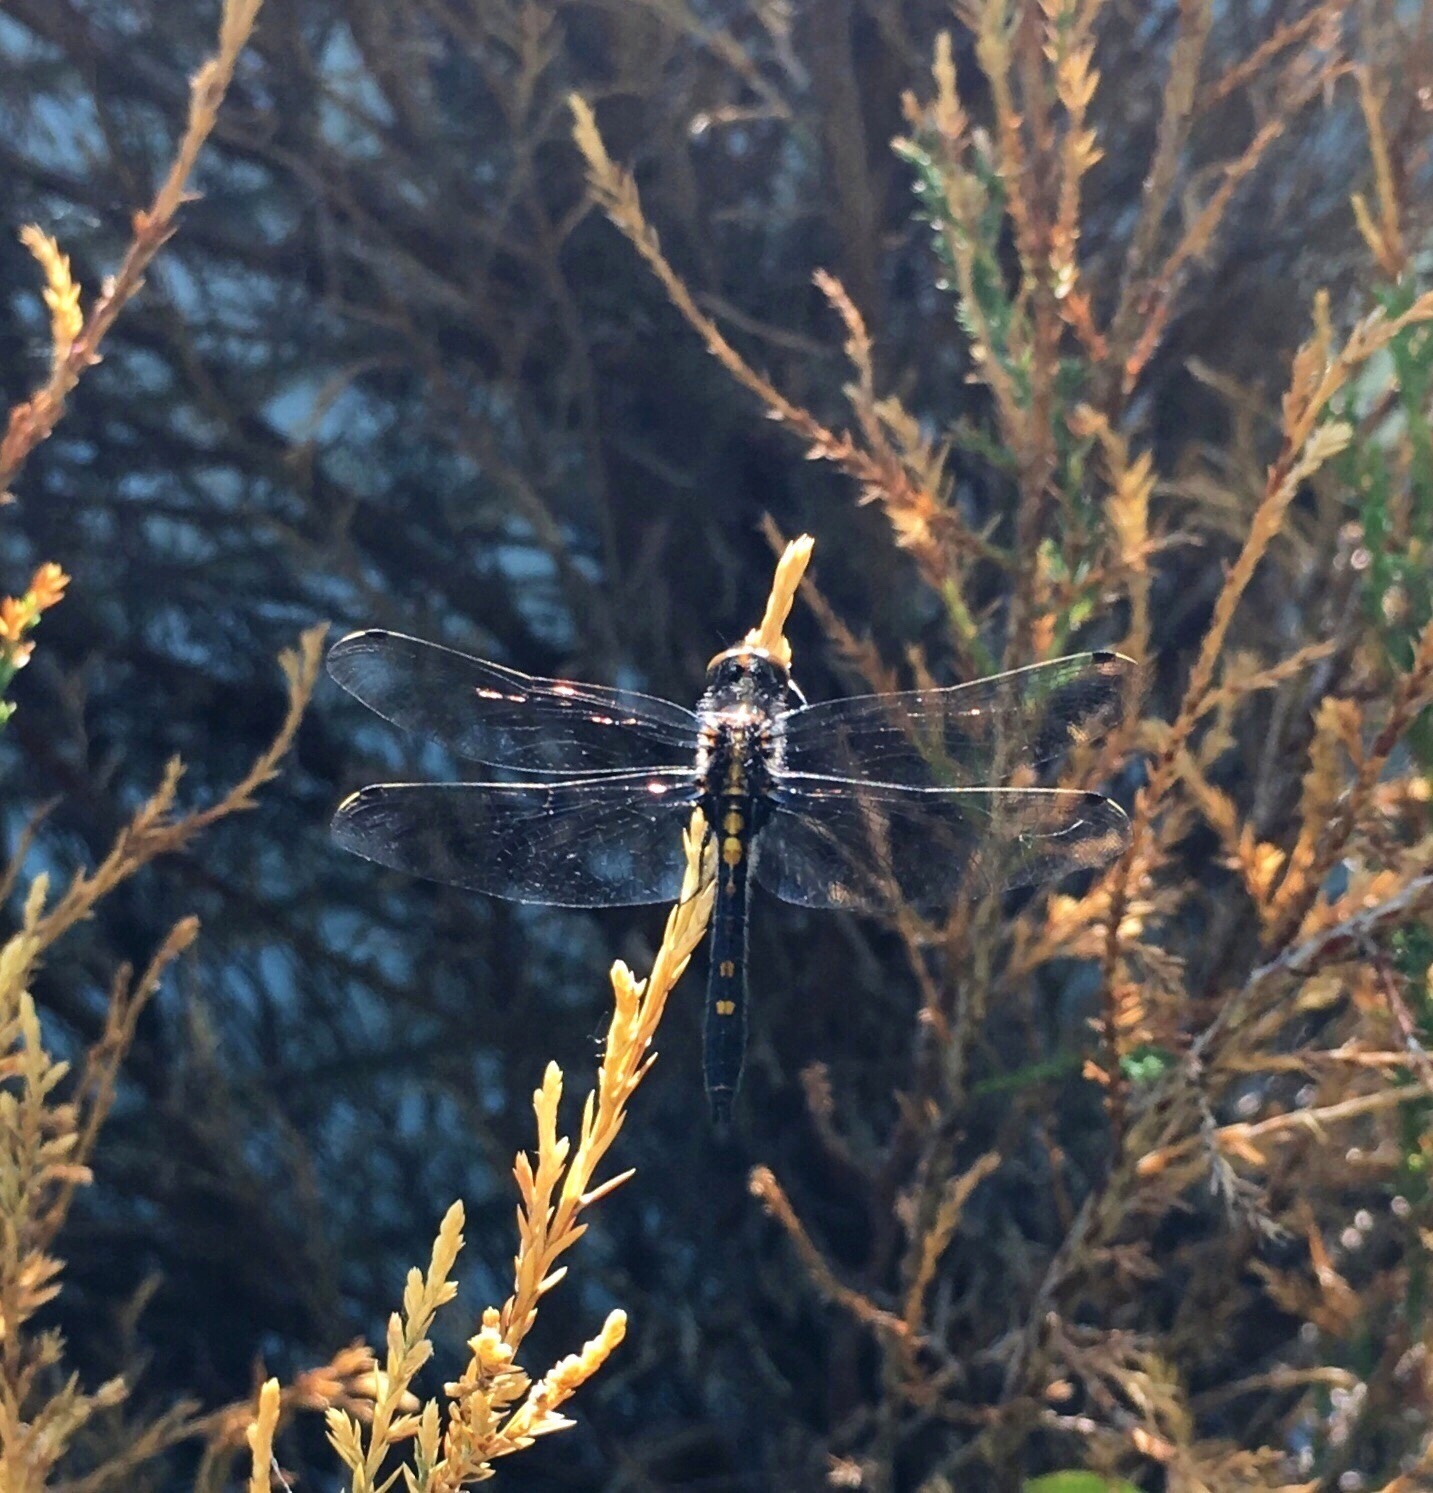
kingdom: Animalia
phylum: Arthropoda
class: Insecta
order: Odonata
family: Libellulidae
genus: Leucorrhinia
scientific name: Leucorrhinia intacta
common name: Dot-tailed whiteface
